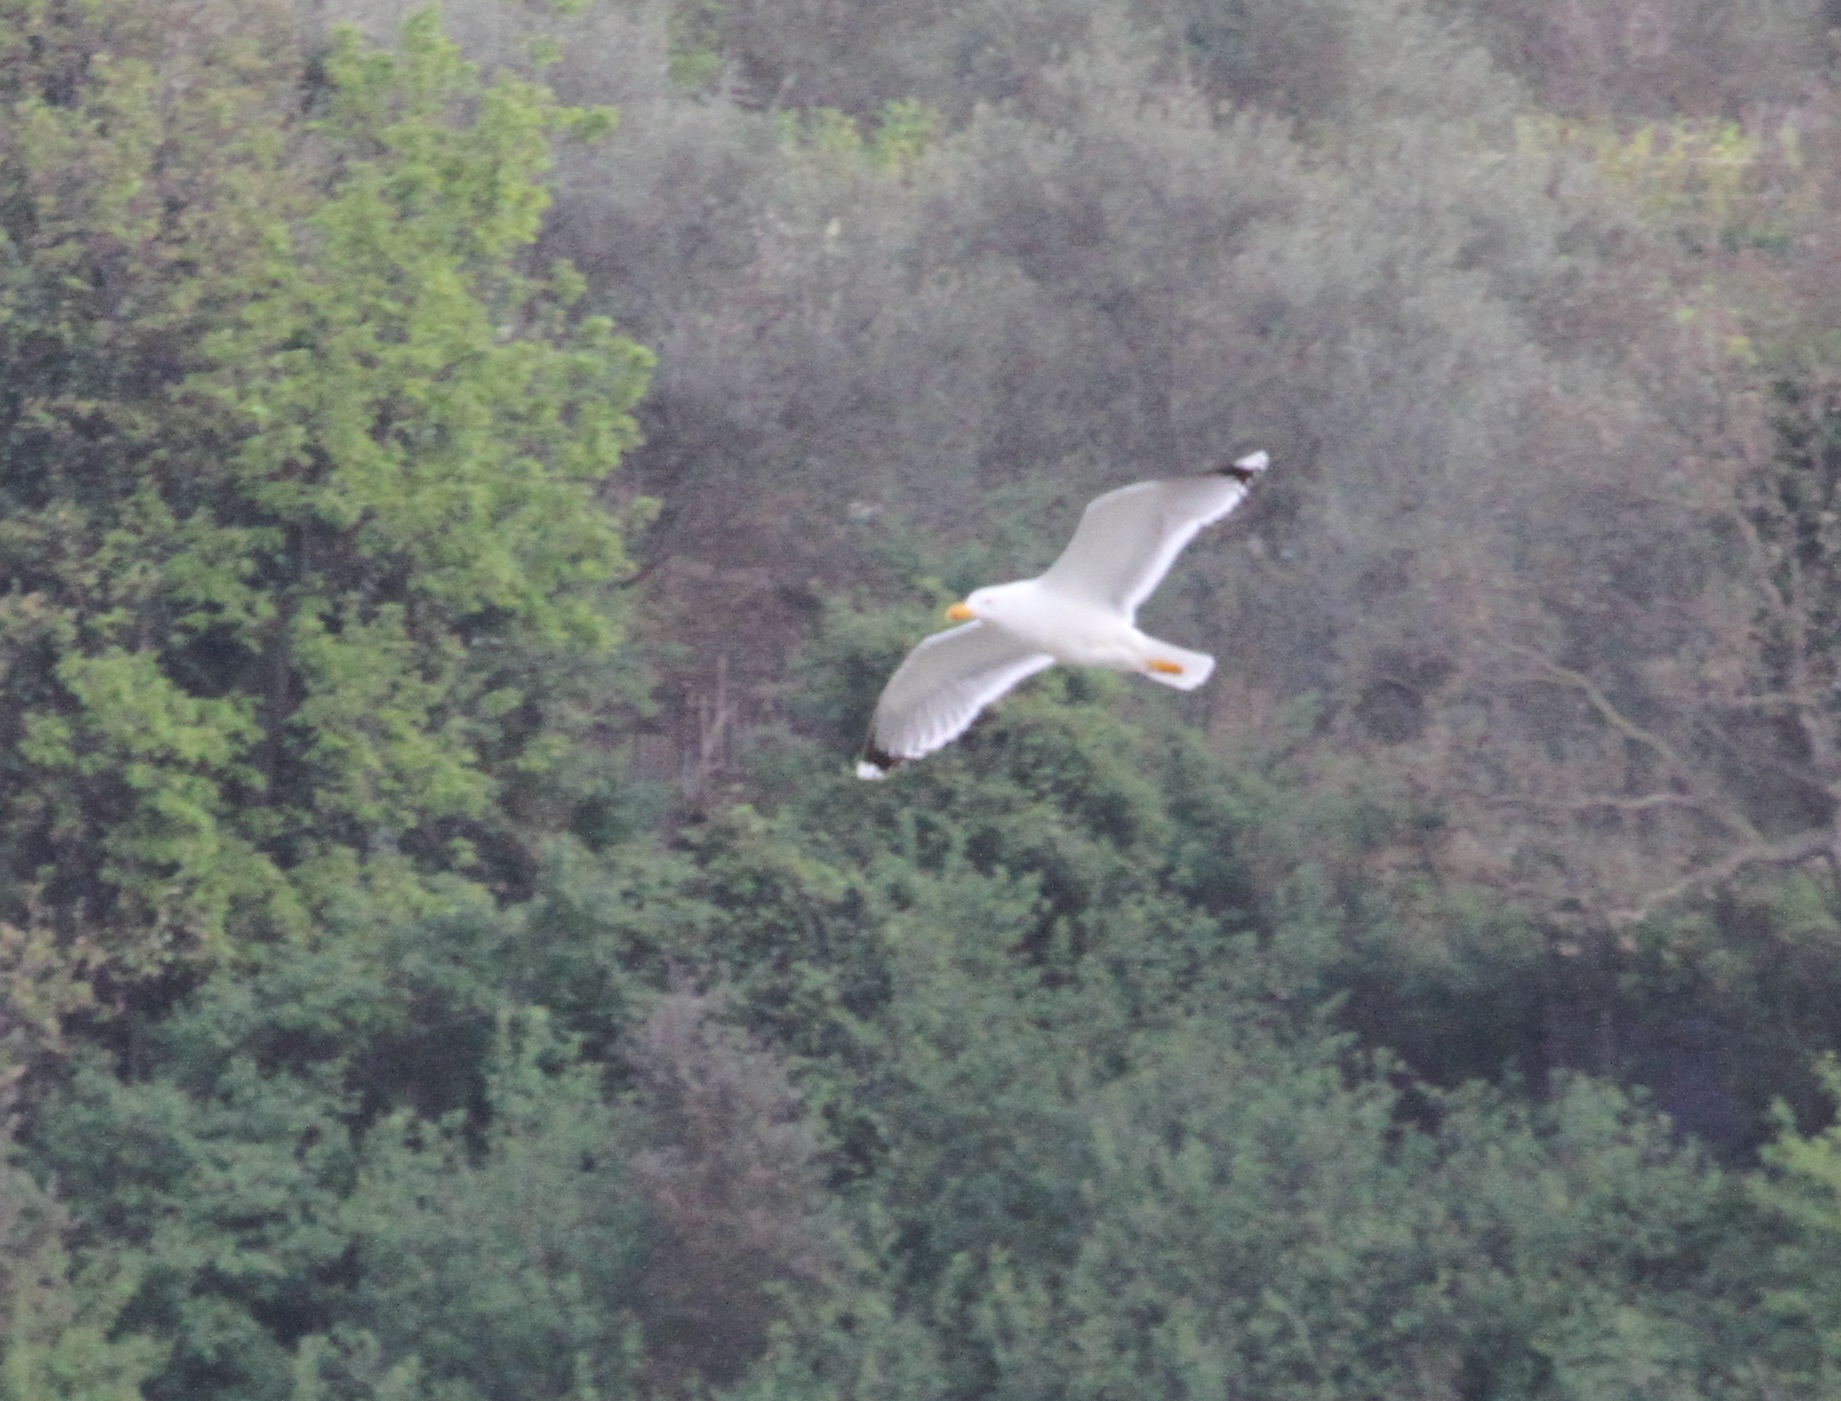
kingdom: Animalia
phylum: Chordata
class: Aves
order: Charadriiformes
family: Laridae
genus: Larus
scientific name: Larus michahellis
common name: Yellow-legged gull
